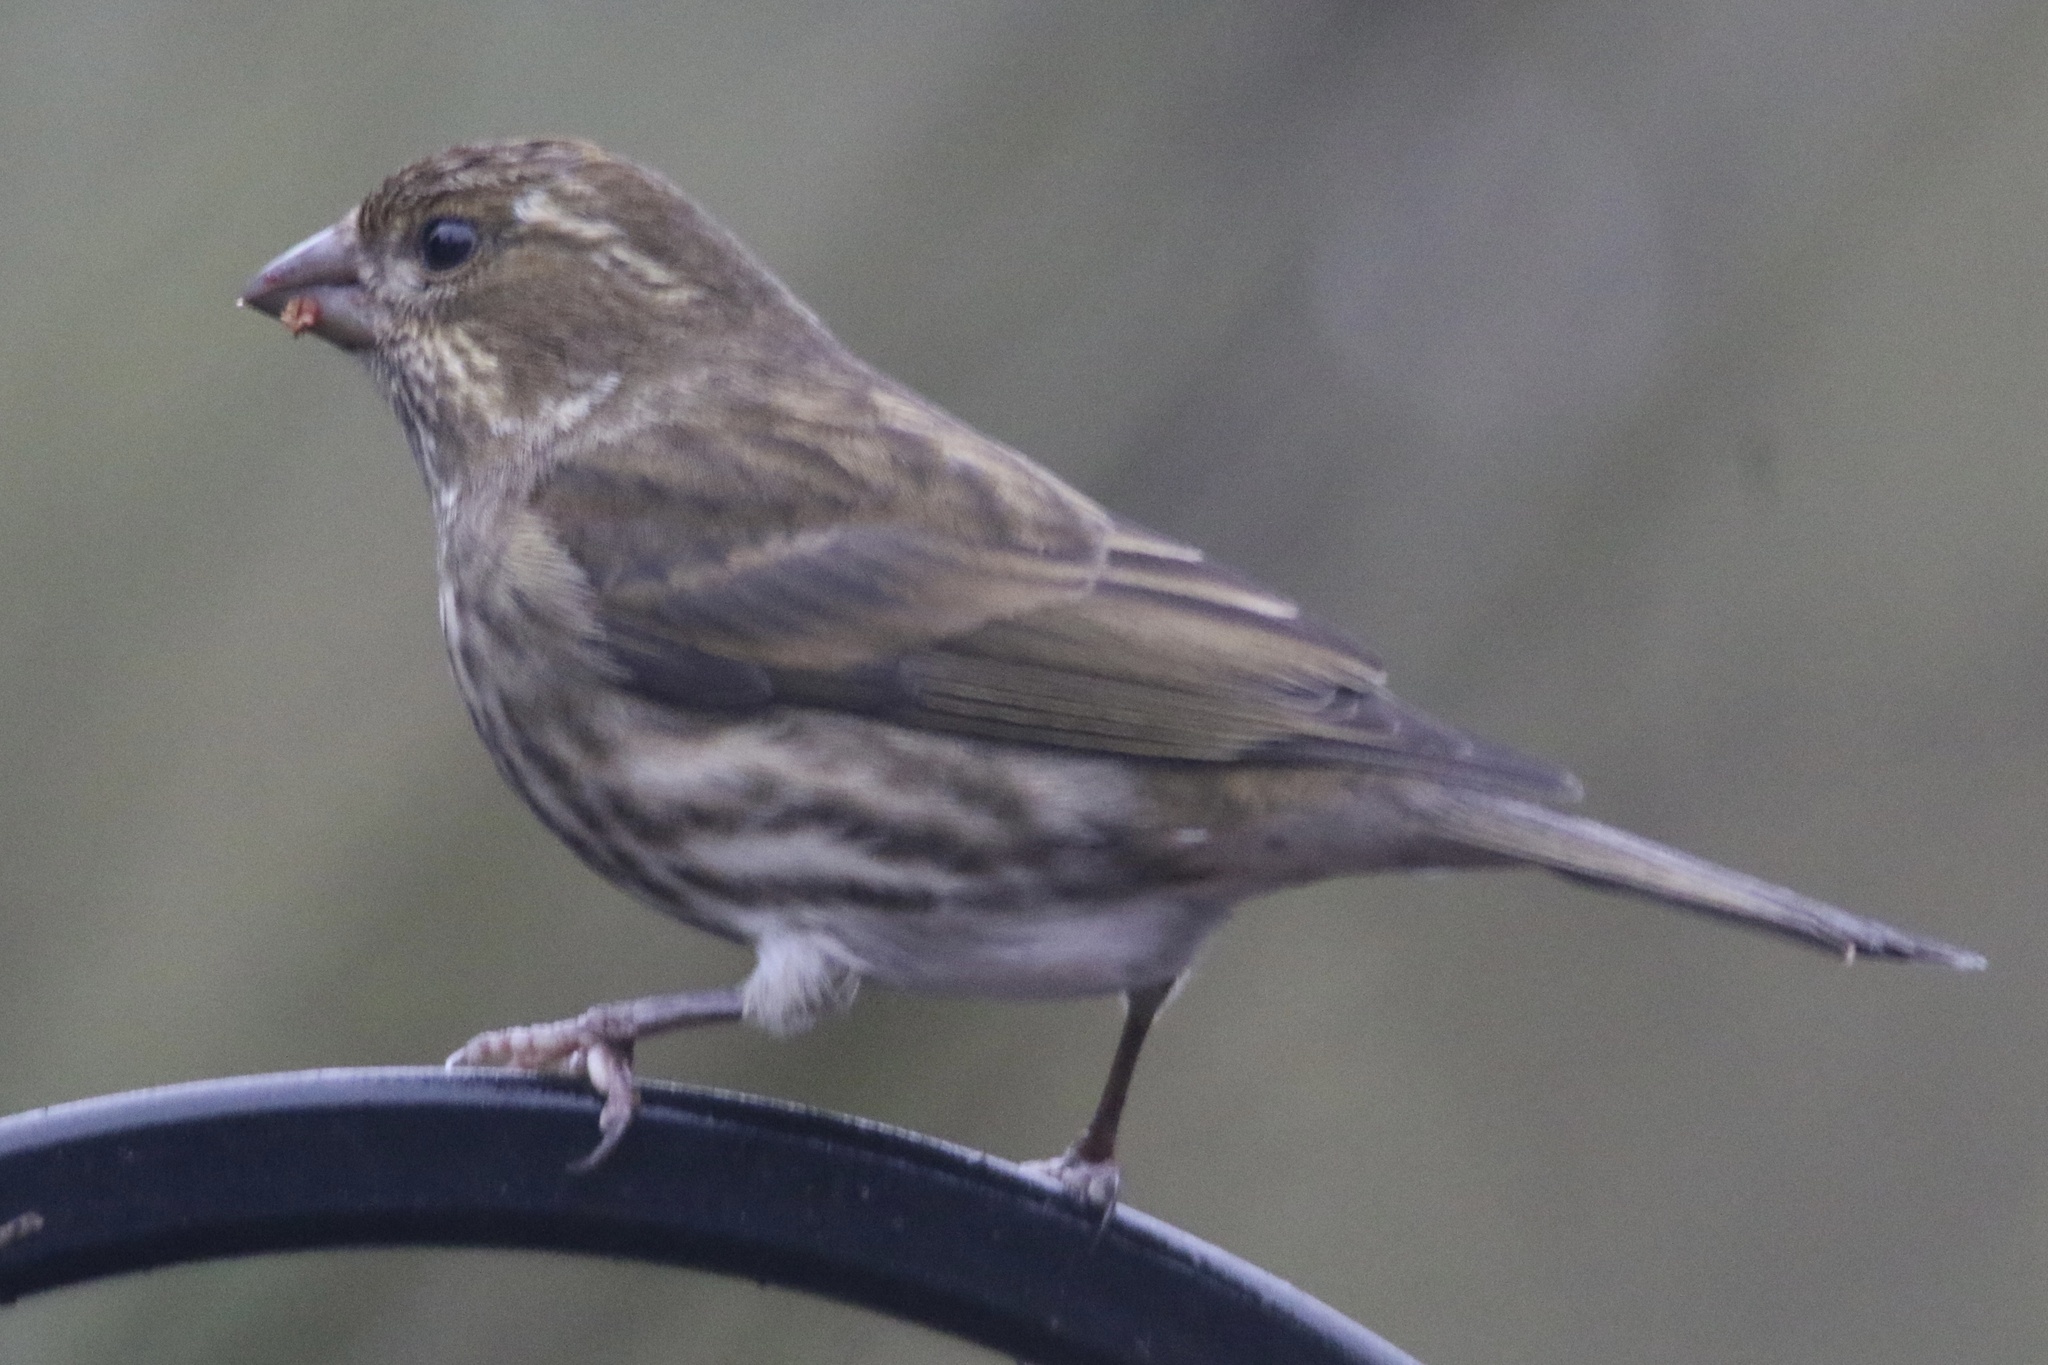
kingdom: Animalia
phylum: Chordata
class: Aves
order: Passeriformes
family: Fringillidae
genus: Haemorhous
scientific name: Haemorhous purpureus
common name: Purple finch
